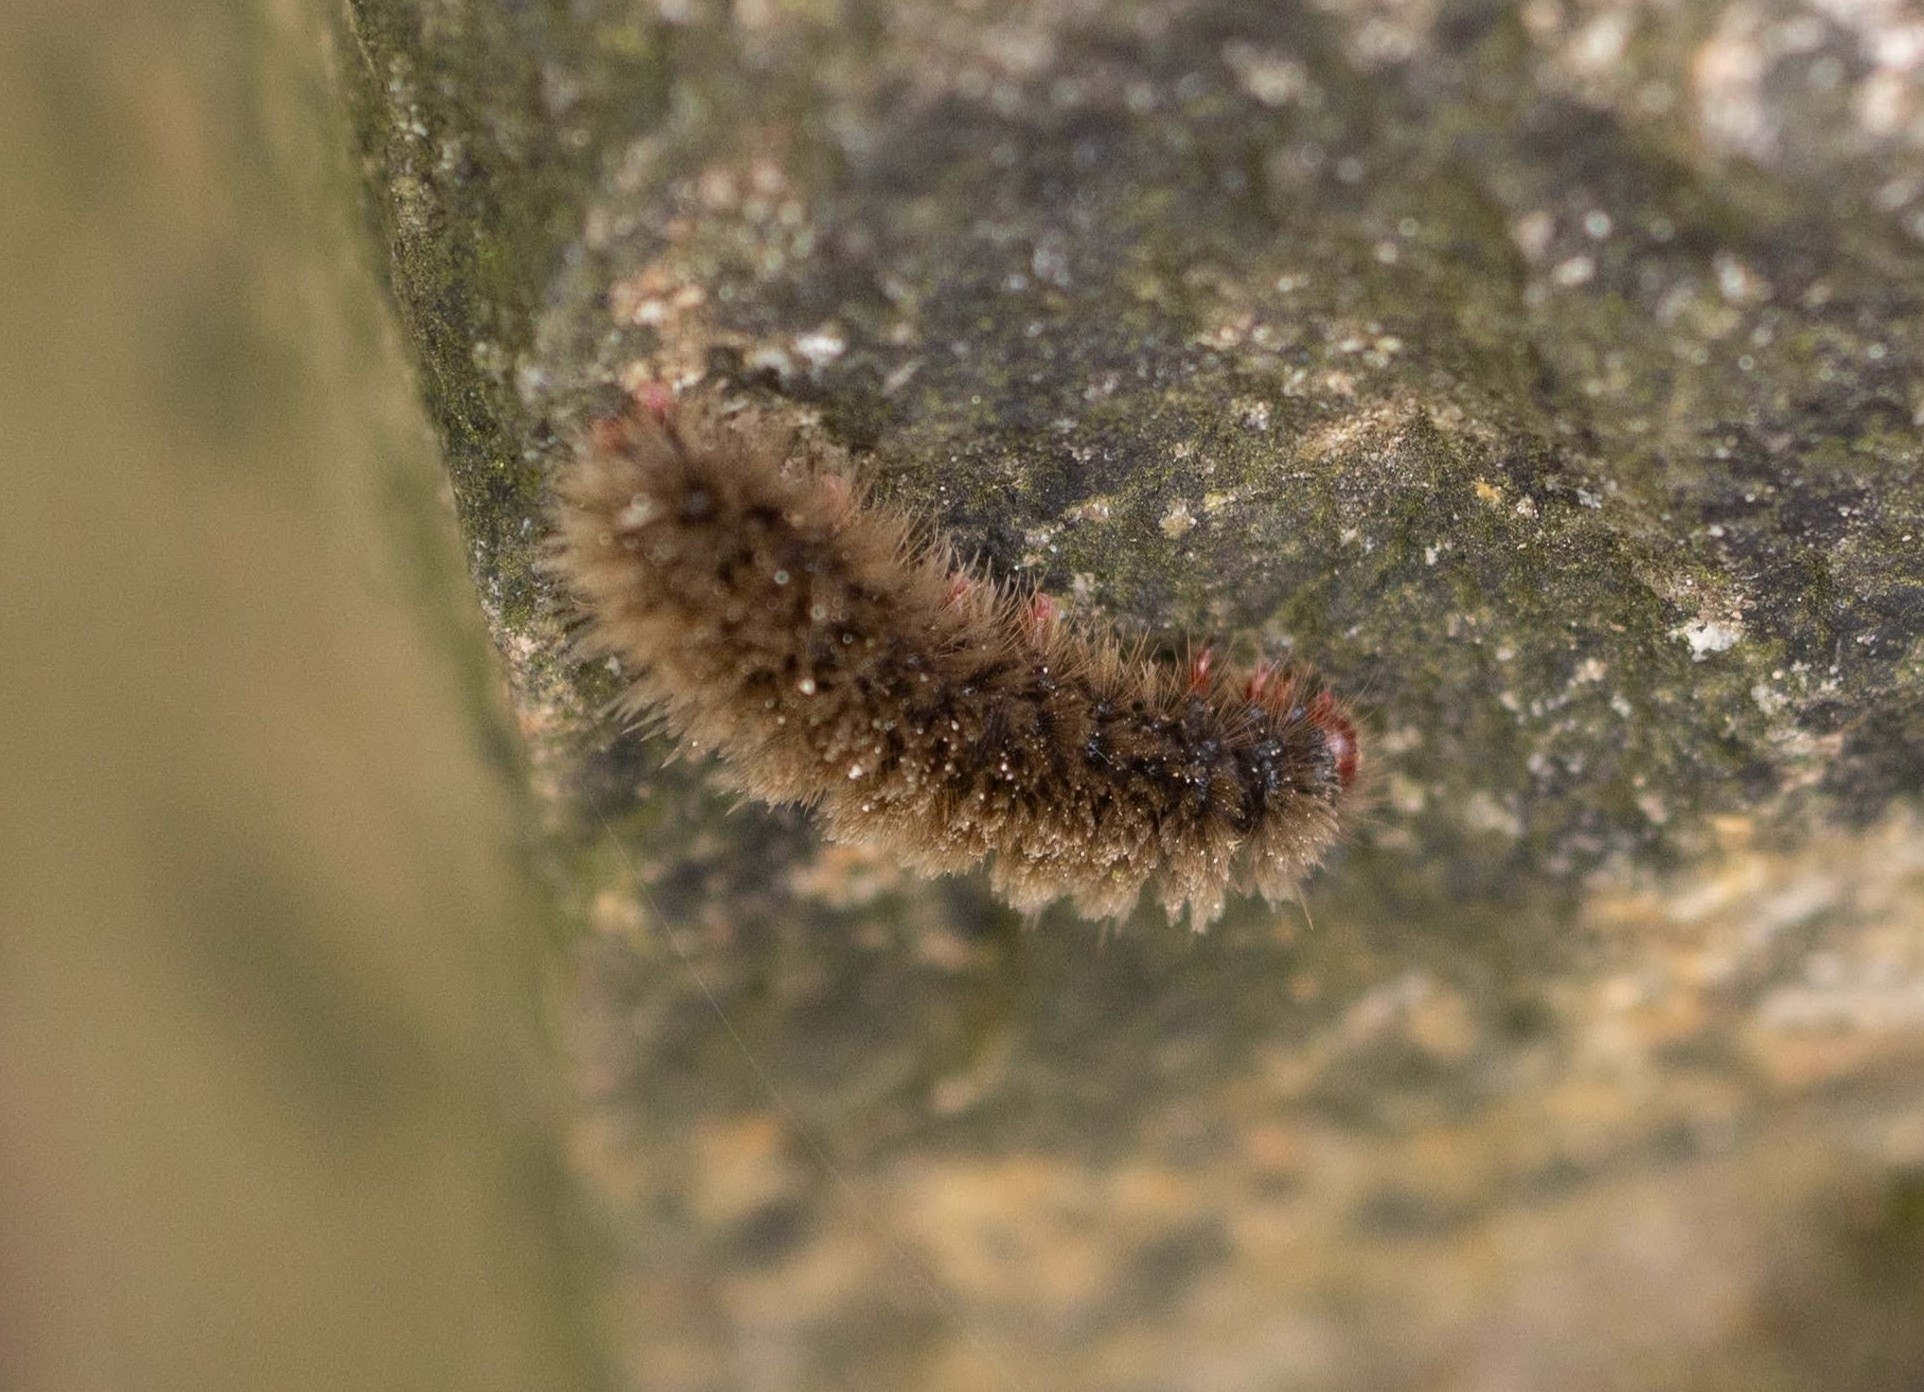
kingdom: Animalia
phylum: Arthropoda
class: Insecta
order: Lepidoptera
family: Erebidae
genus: Amata
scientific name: Amata phegea
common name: Nine-spotted
